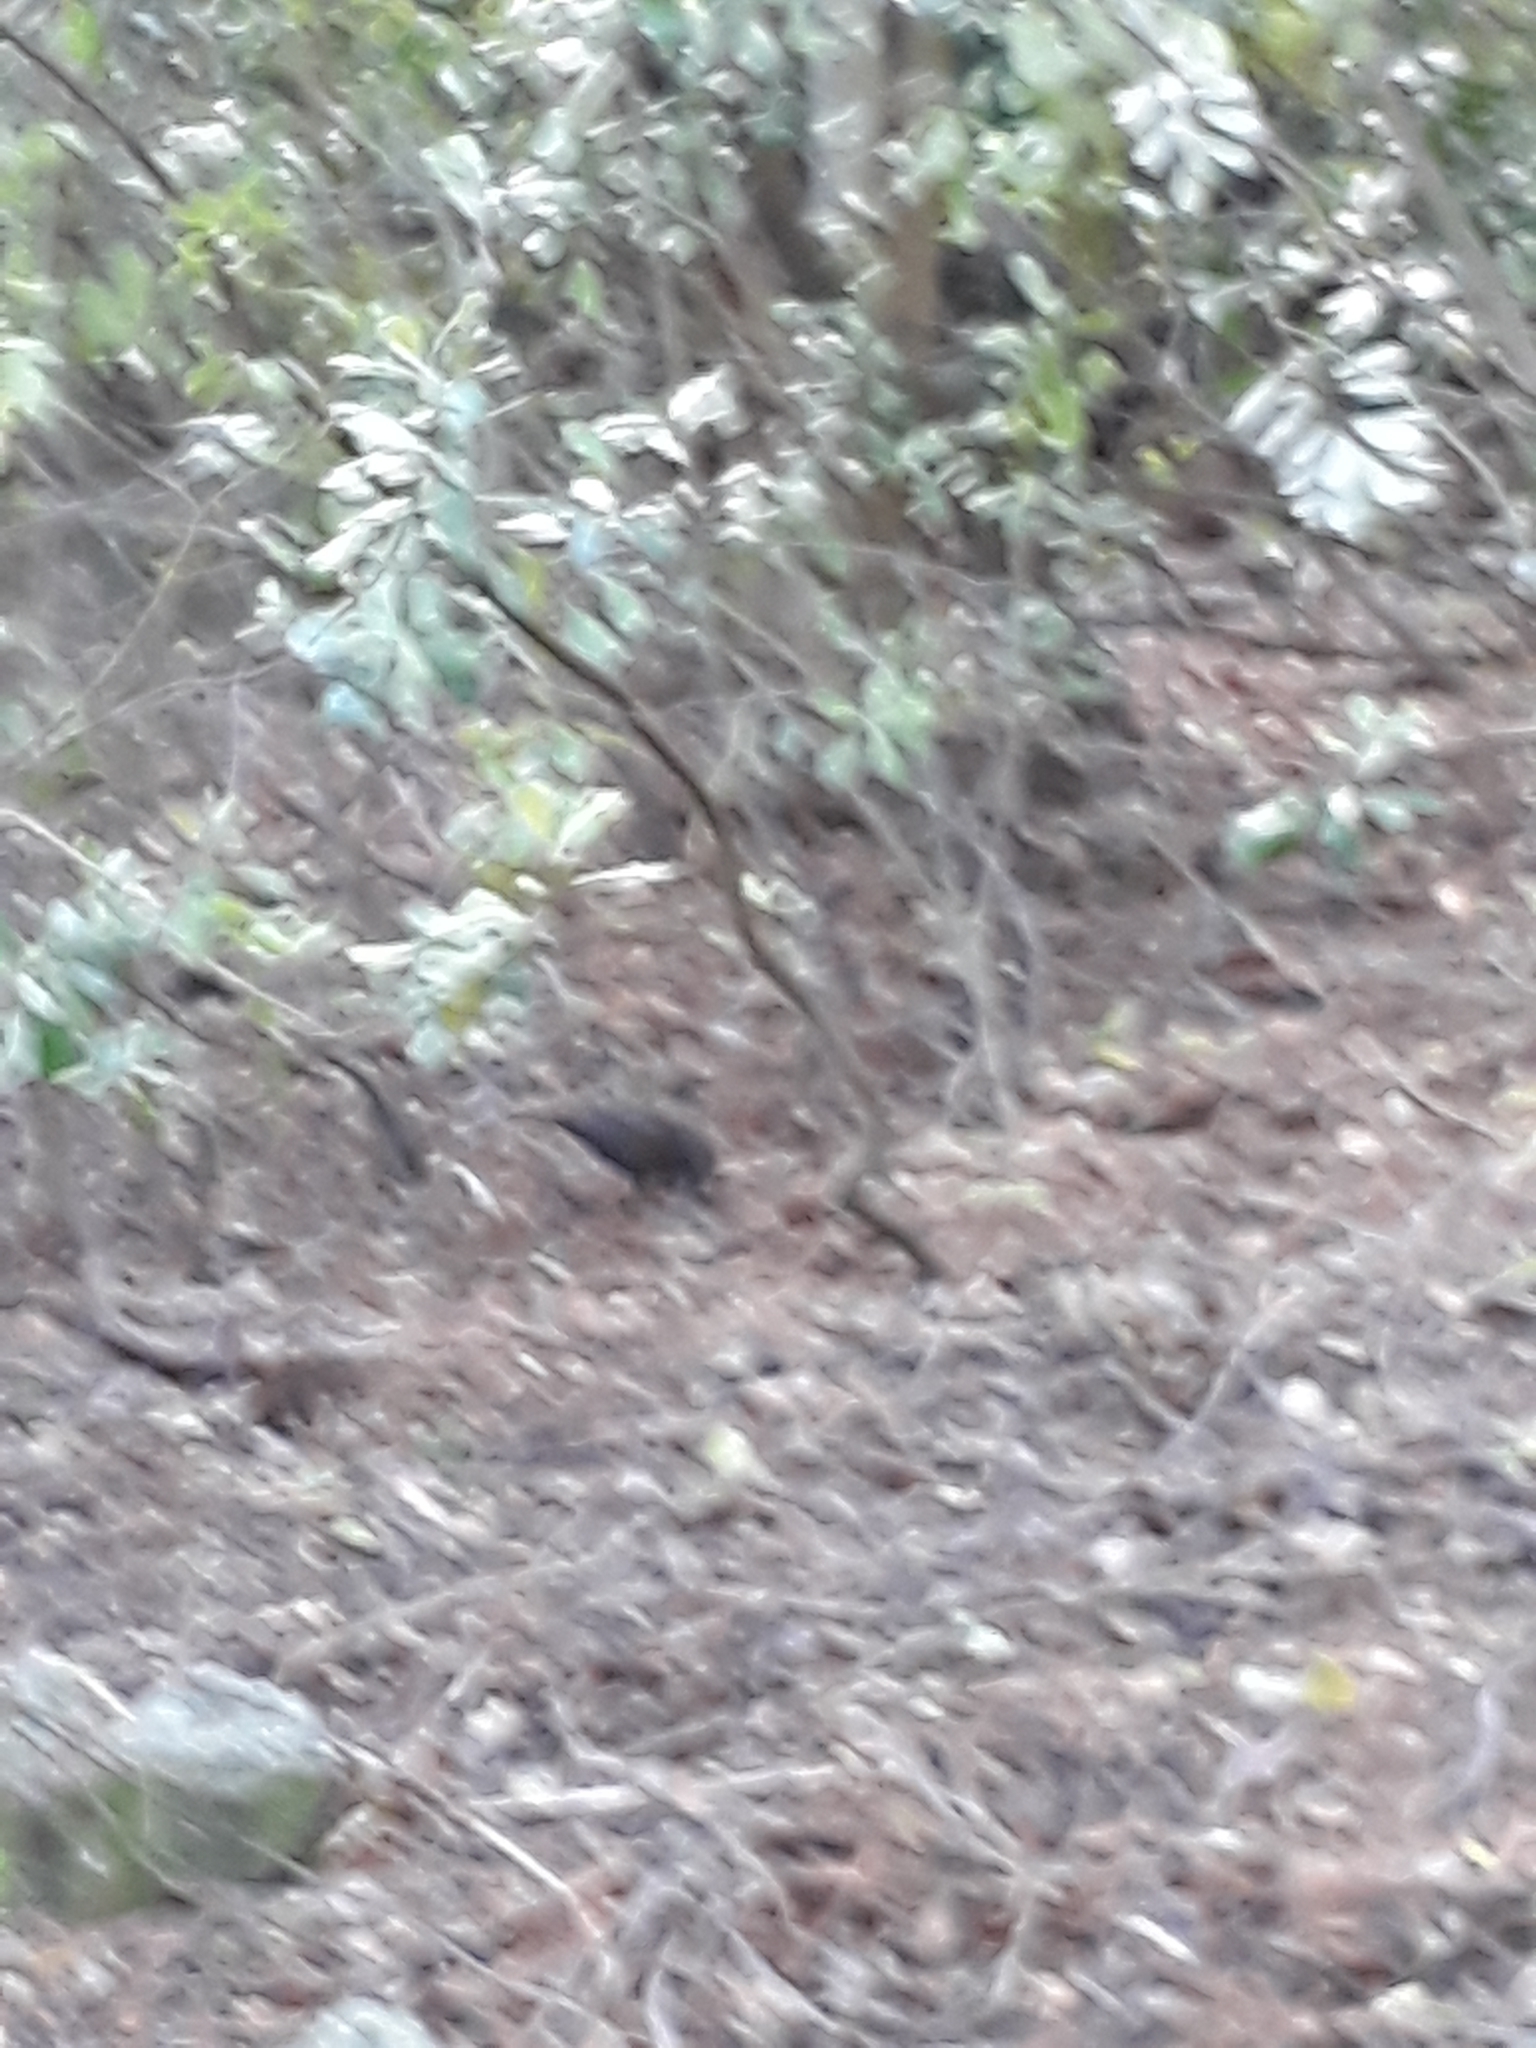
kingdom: Animalia
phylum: Chordata
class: Aves
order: Passeriformes
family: Turdidae
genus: Turdus
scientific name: Turdus merula
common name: Common blackbird
